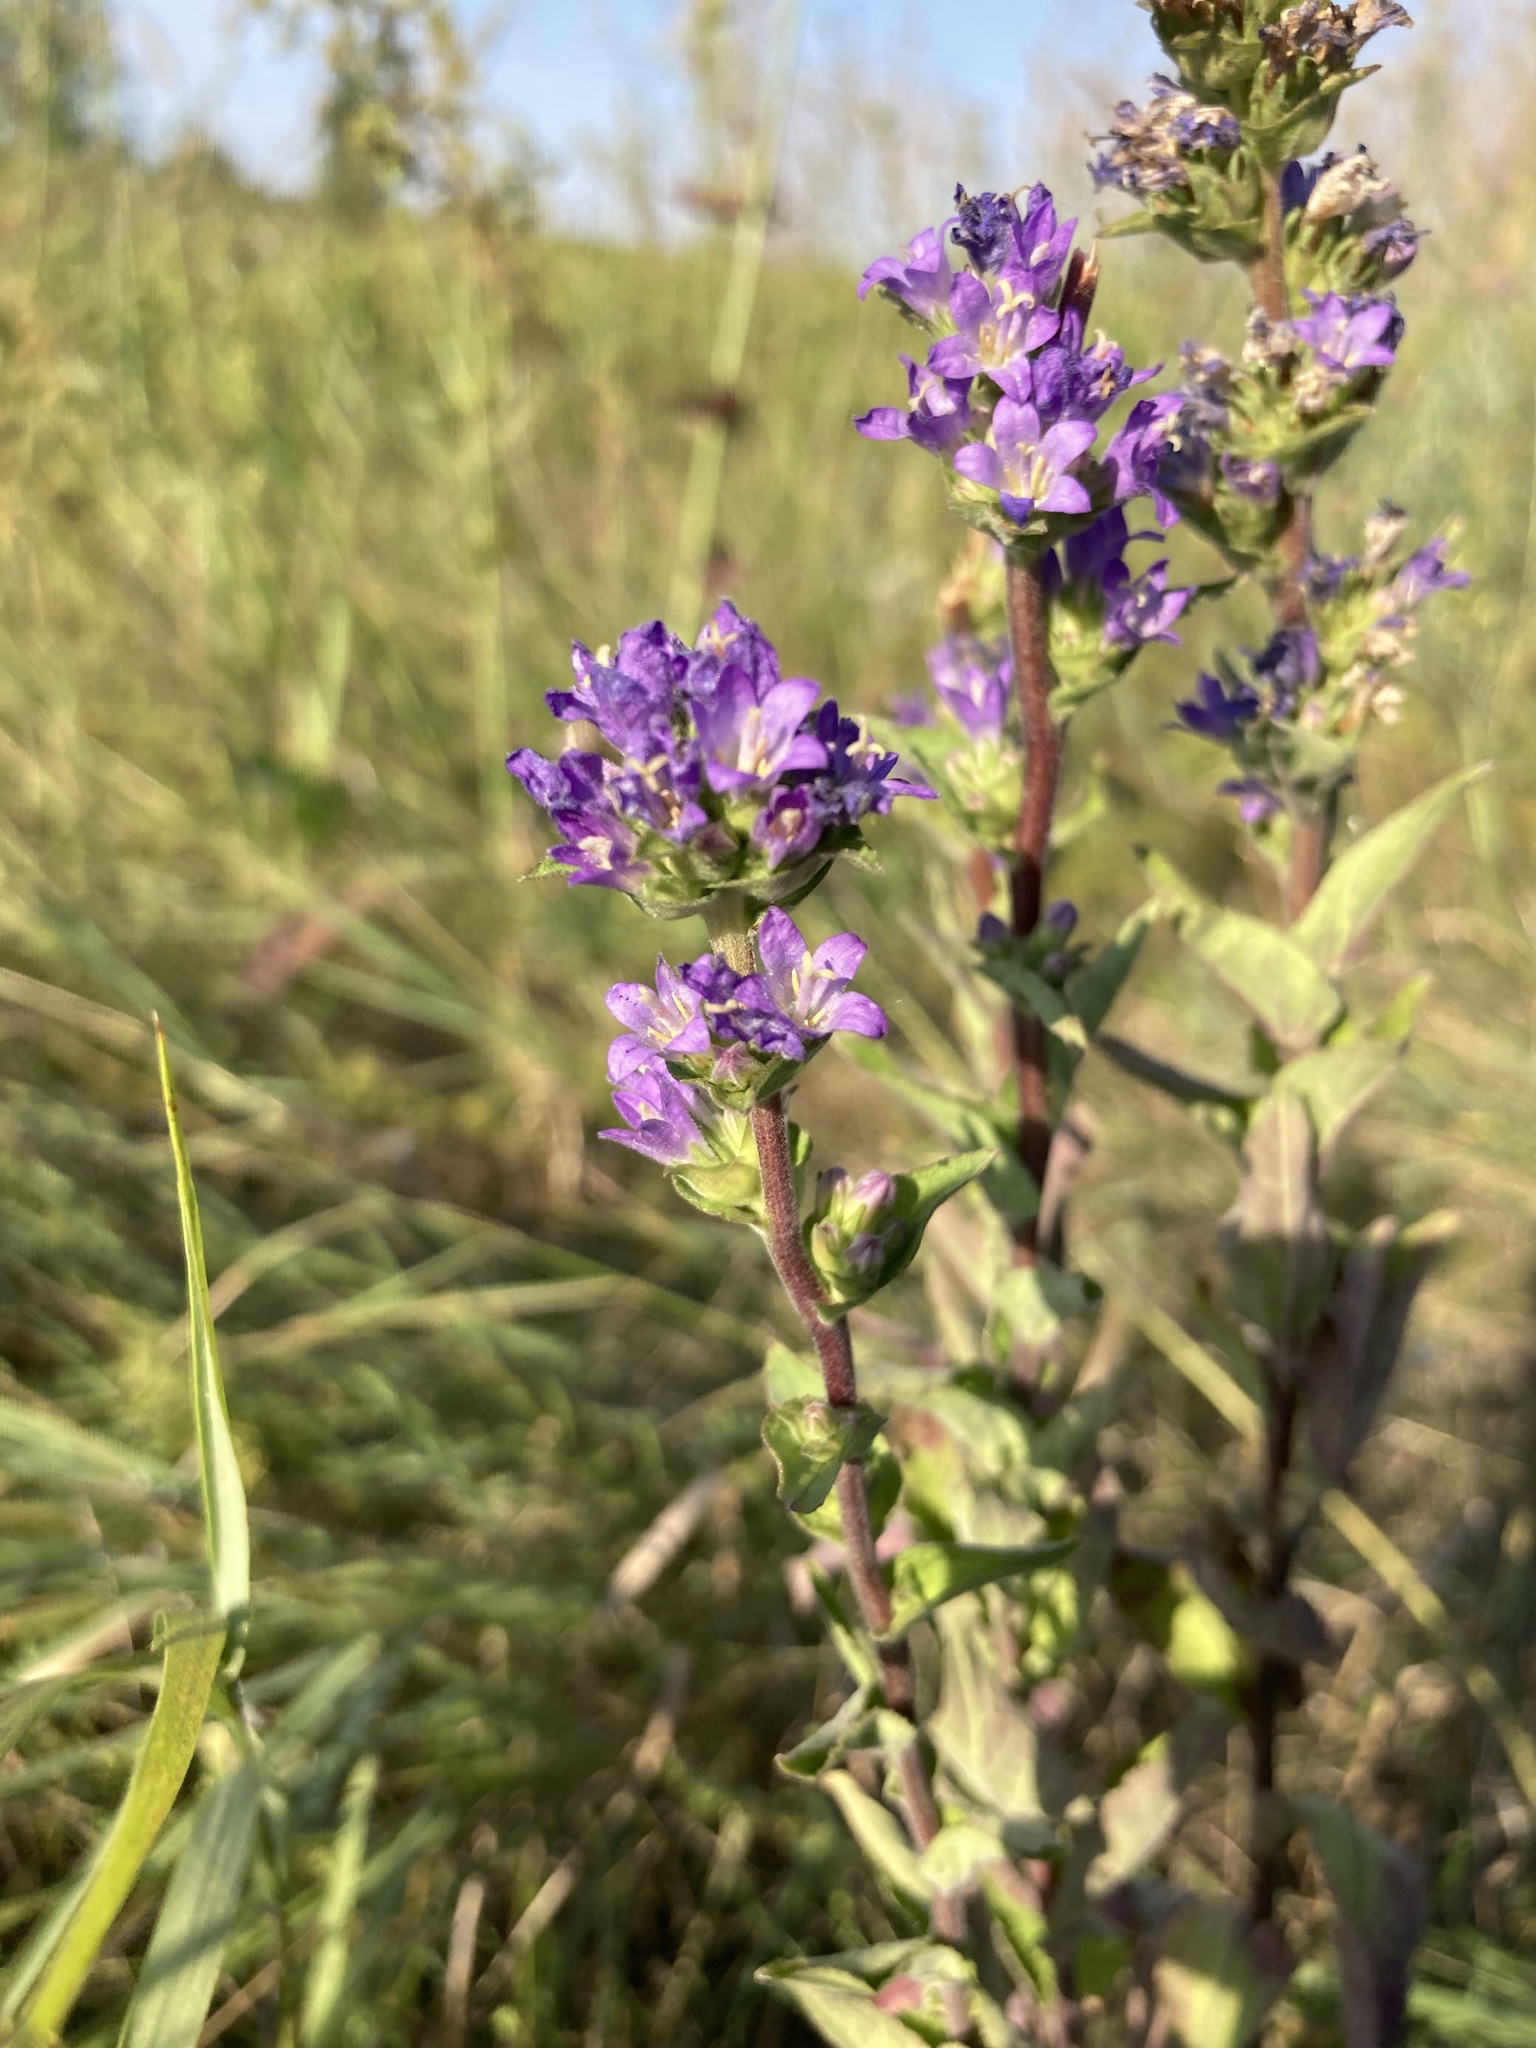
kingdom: Plantae
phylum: Tracheophyta
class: Magnoliopsida
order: Asterales
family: Campanulaceae
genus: Campanula
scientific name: Campanula glomerata
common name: Clustered bellflower
